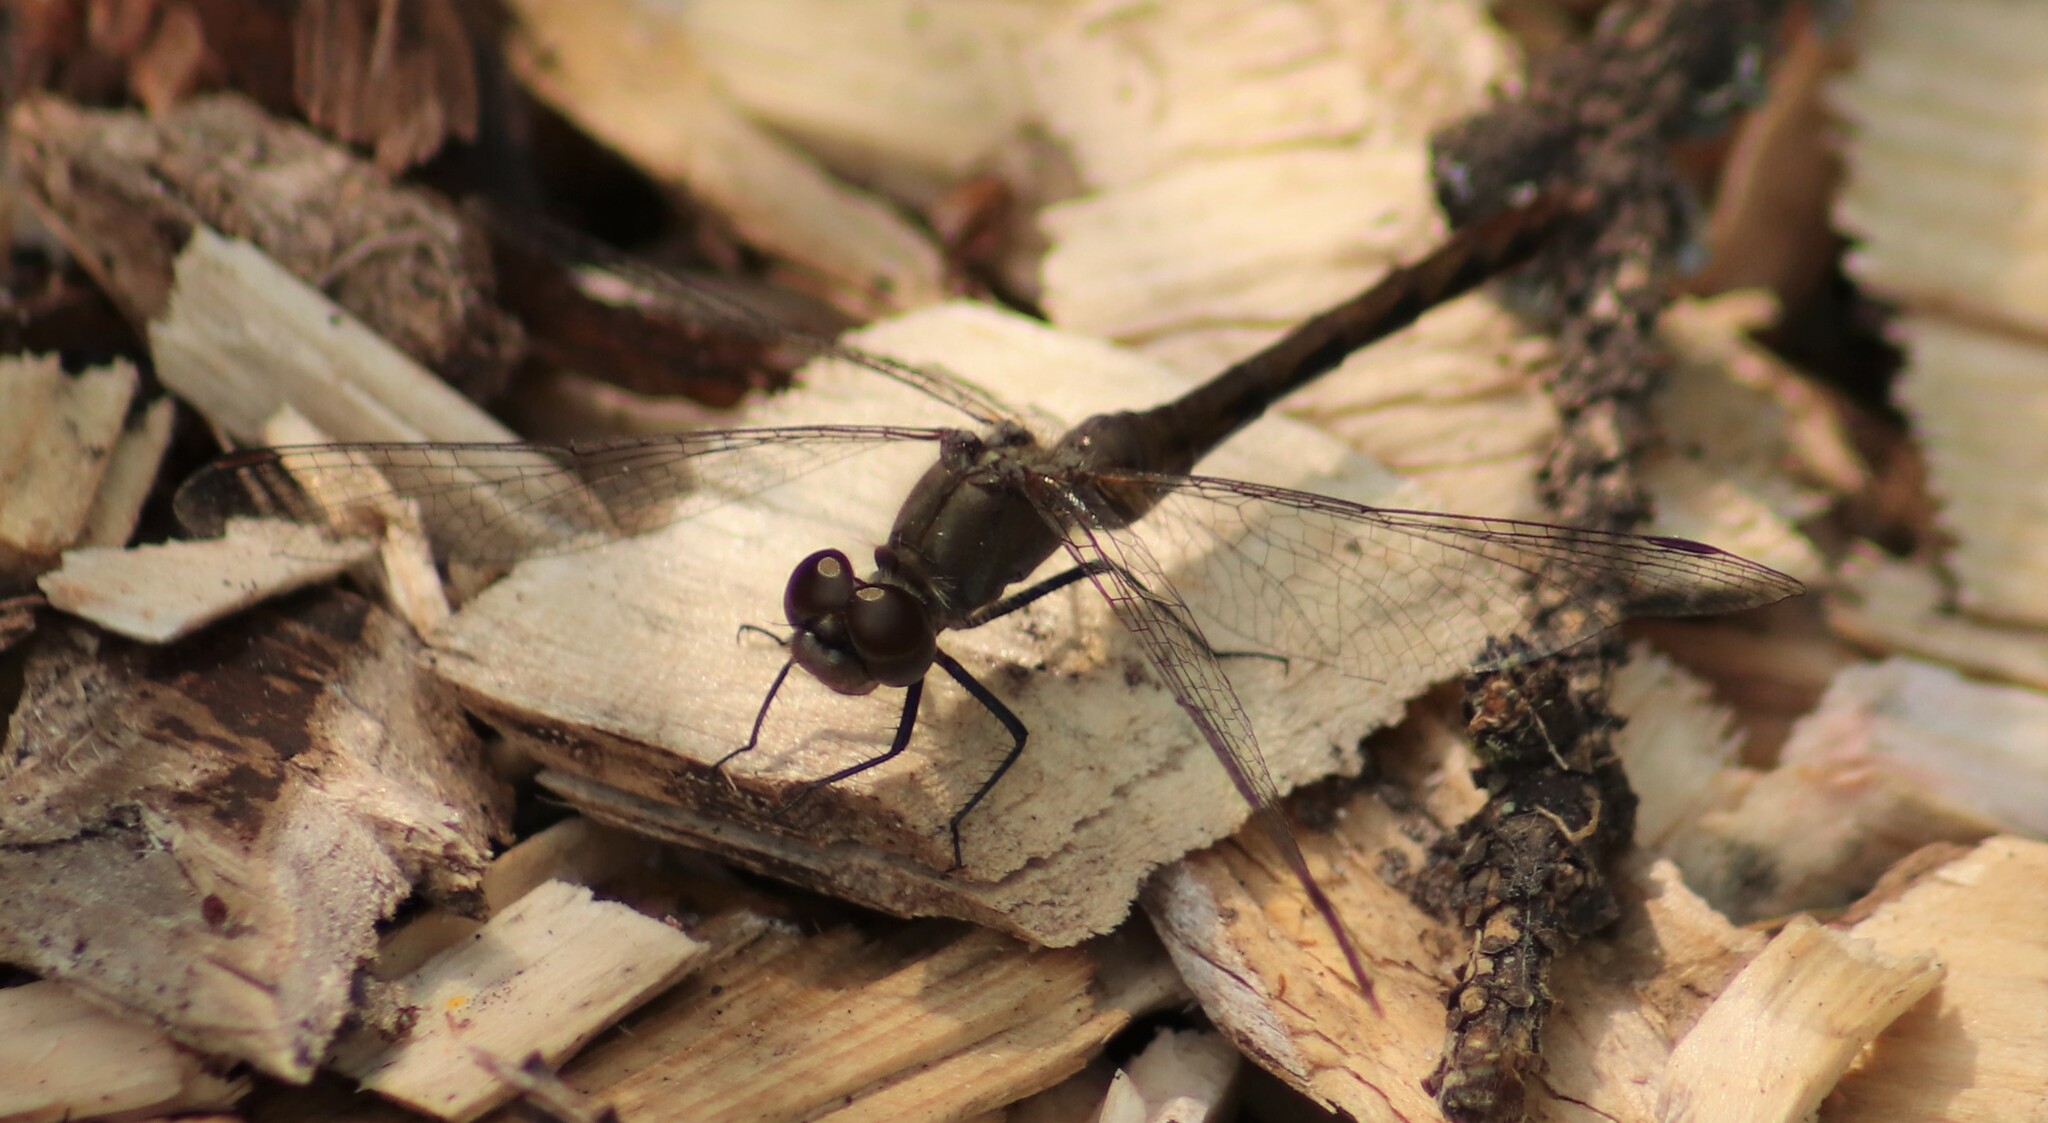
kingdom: Animalia
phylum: Arthropoda
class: Insecta
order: Odonata
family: Libellulidae
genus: Sympetrum
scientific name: Sympetrum danae
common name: Black darter
